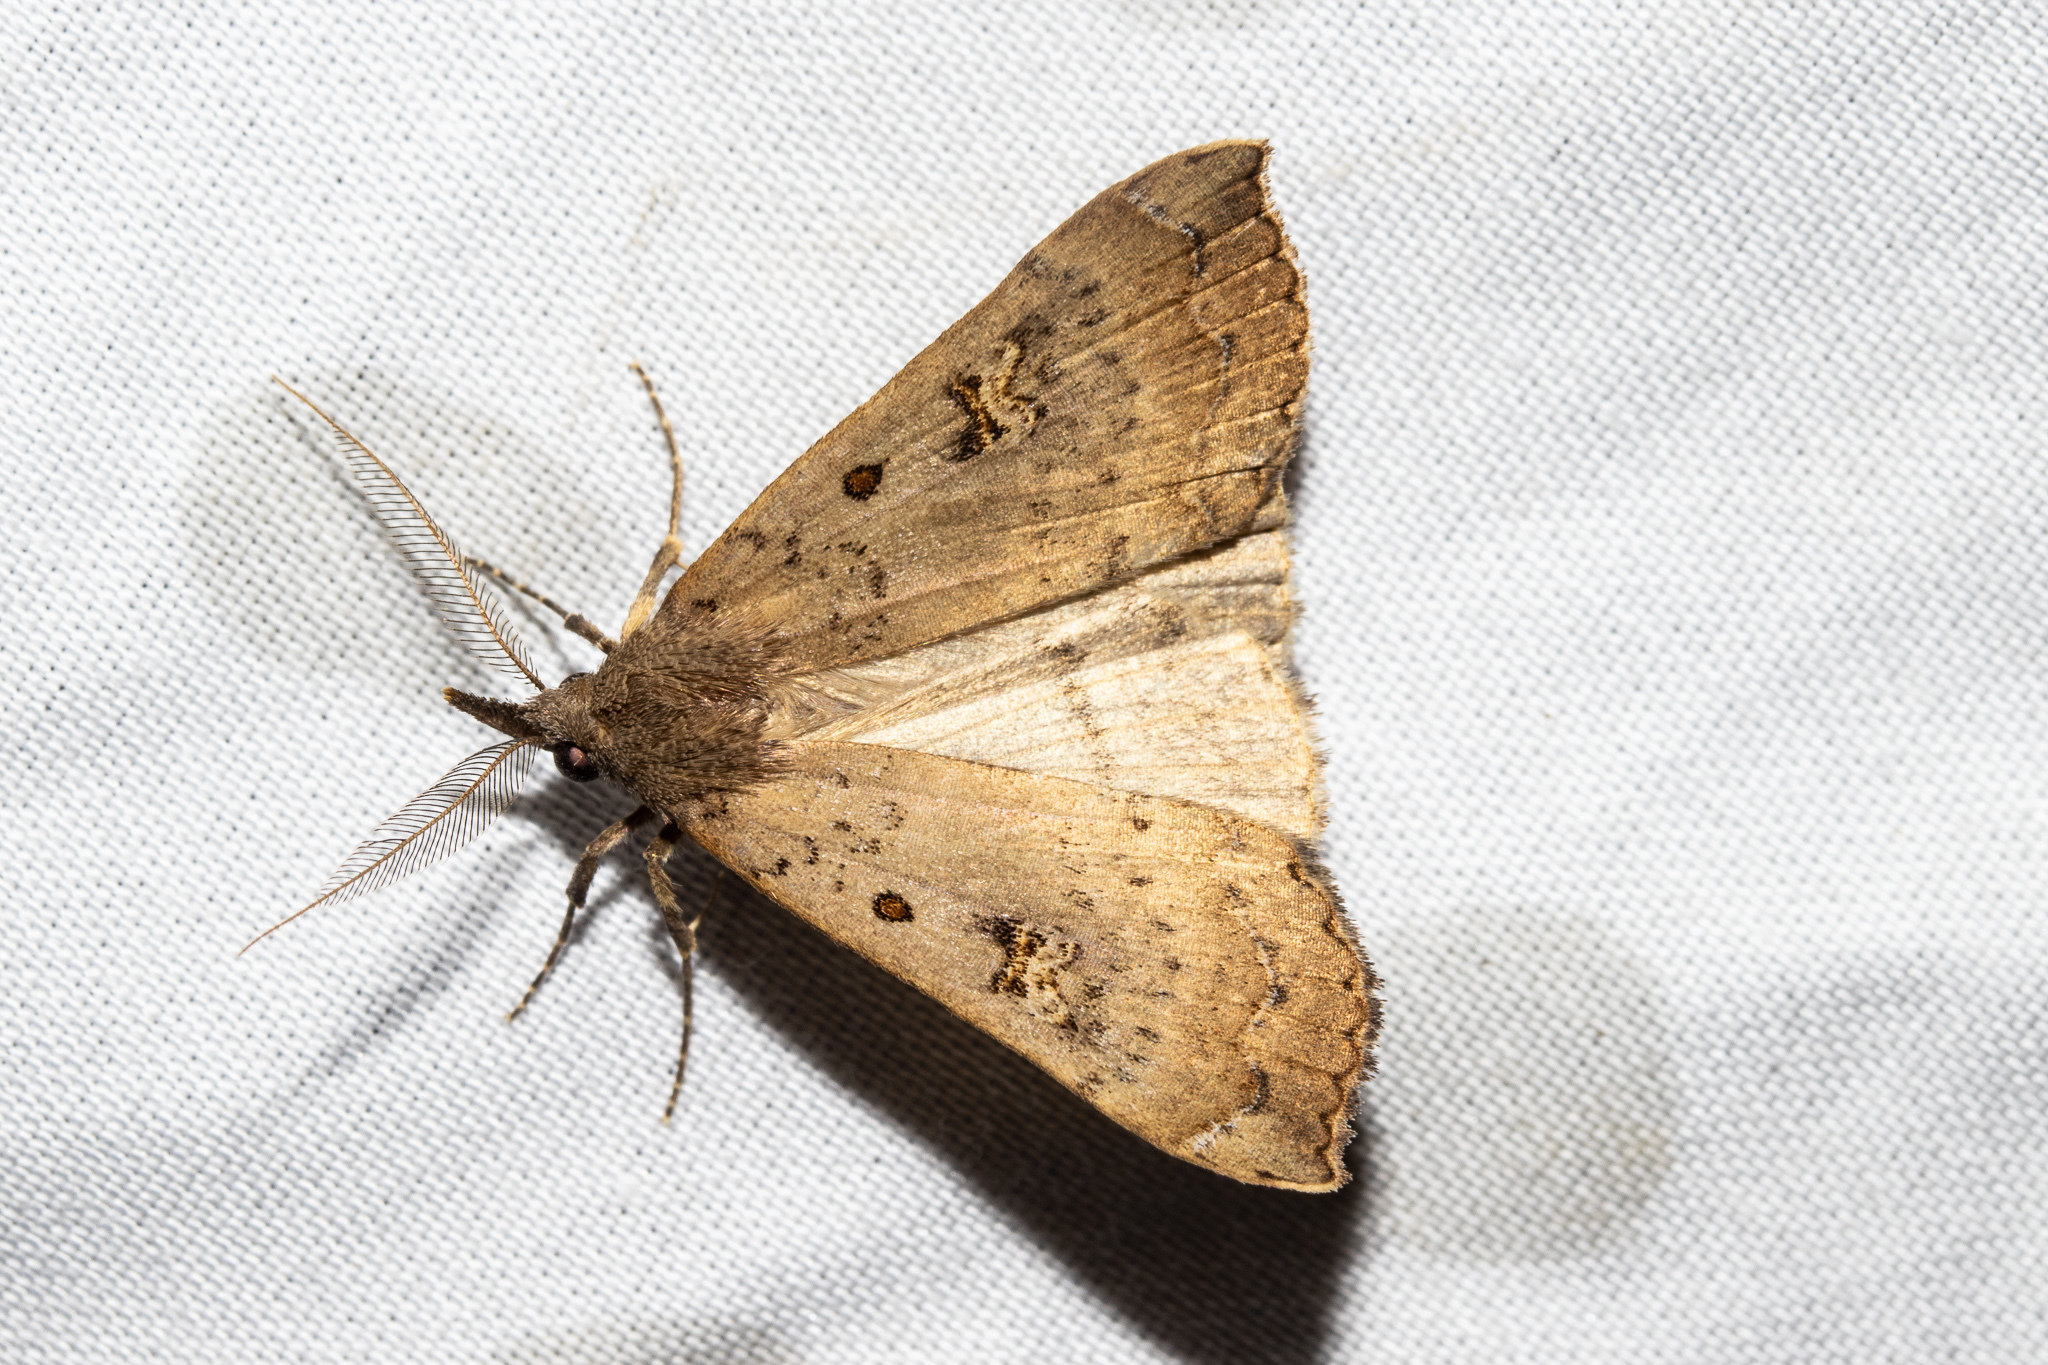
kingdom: Animalia
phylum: Arthropoda
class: Insecta
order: Lepidoptera
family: Erebidae
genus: Rhapsa
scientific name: Rhapsa scotosialis
